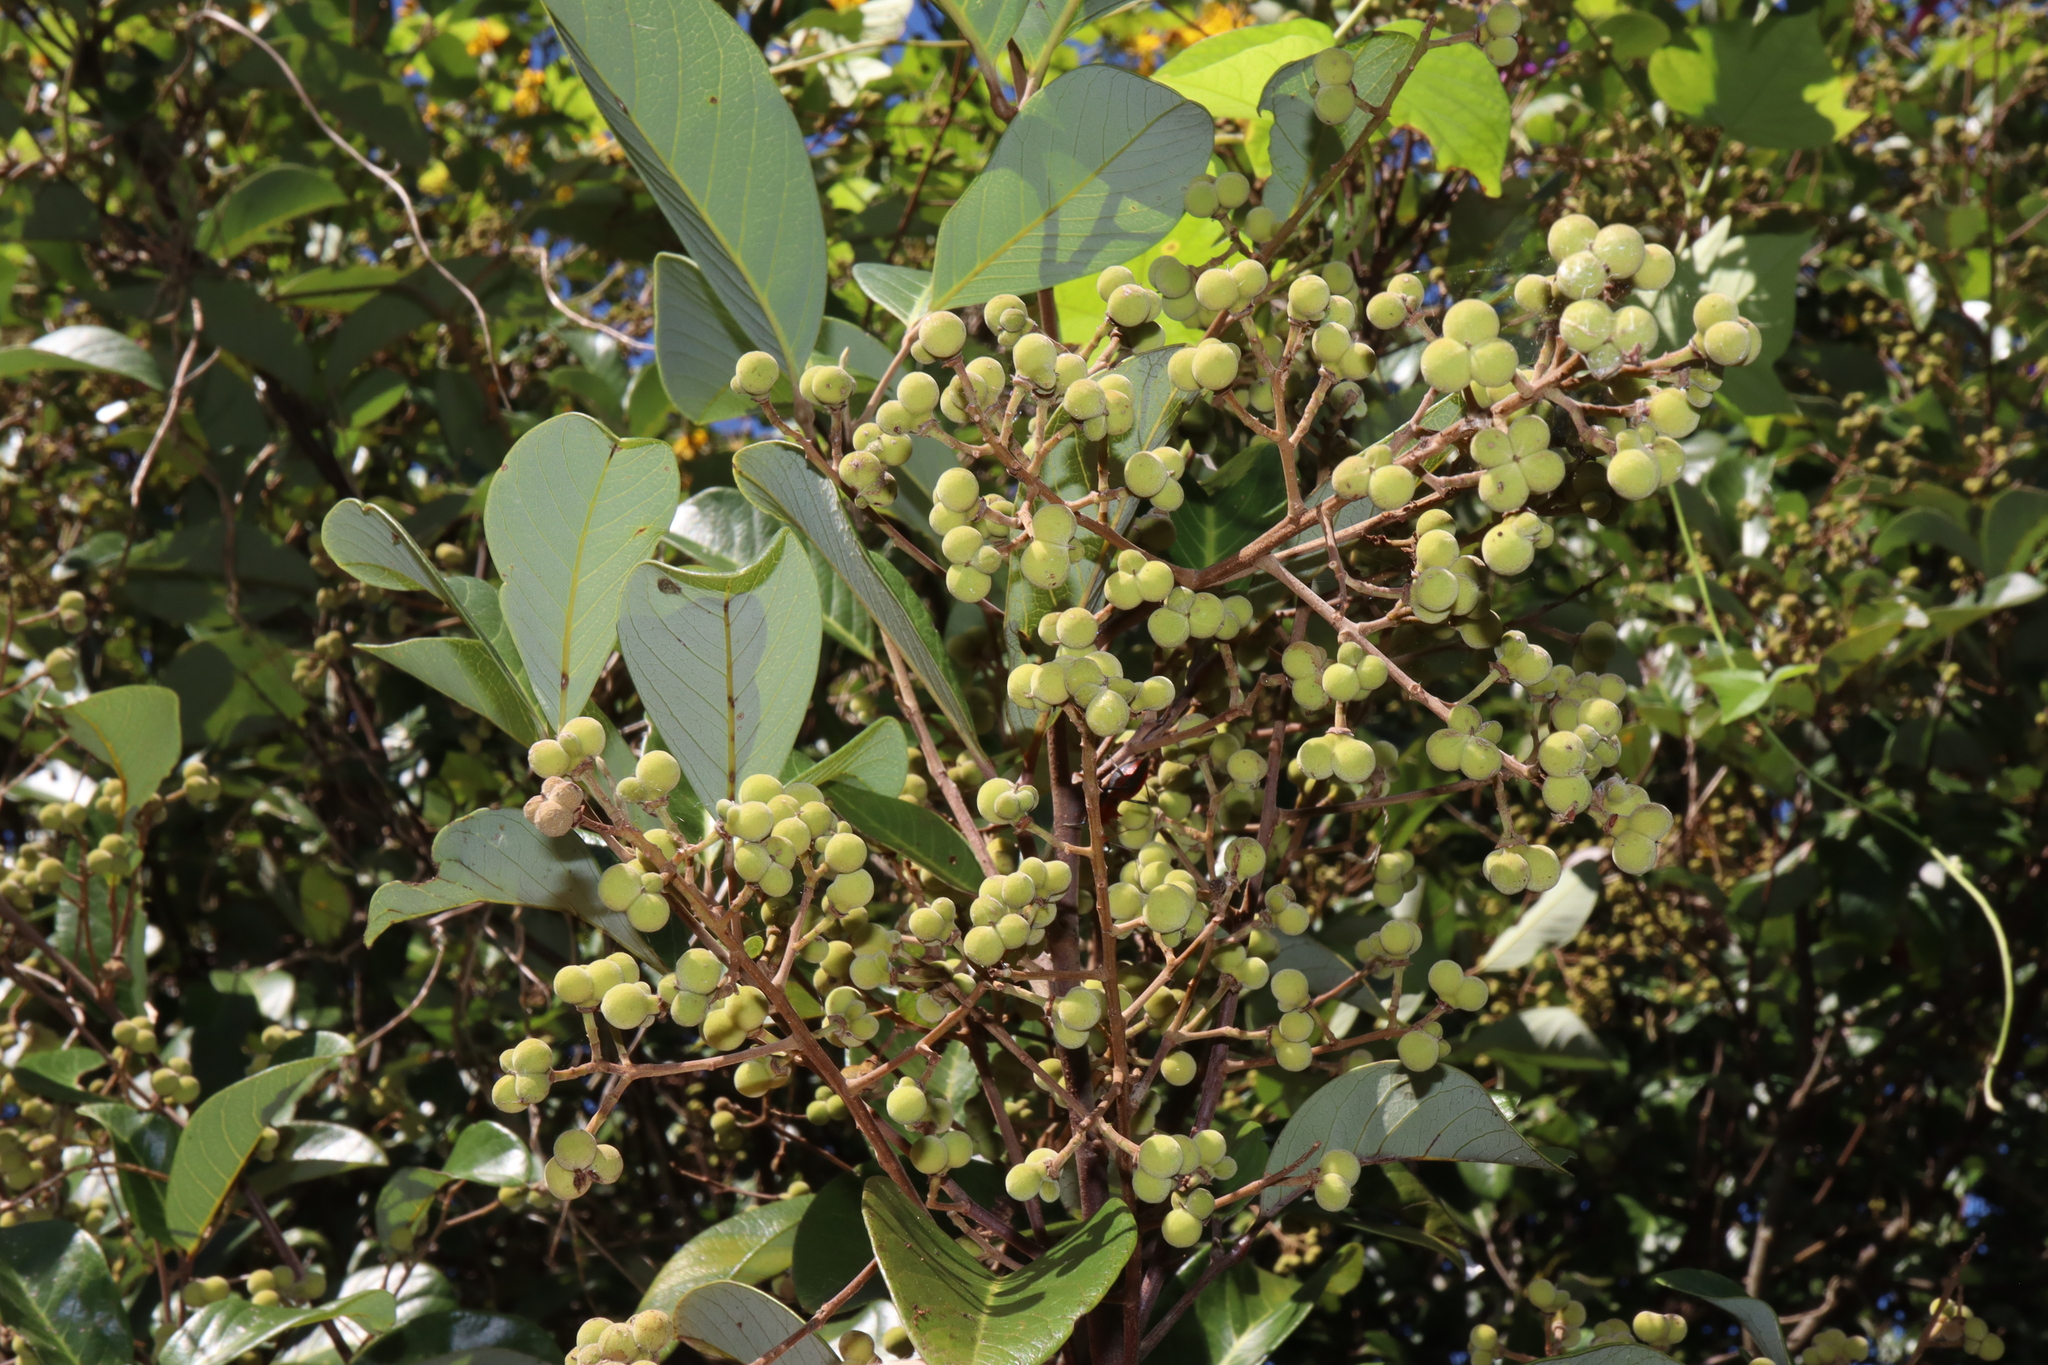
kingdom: Plantae
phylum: Tracheophyta
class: Magnoliopsida
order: Sapindales
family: Sapindaceae
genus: Alectryon
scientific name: Alectryon coriaceus
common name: Beach alectryon
